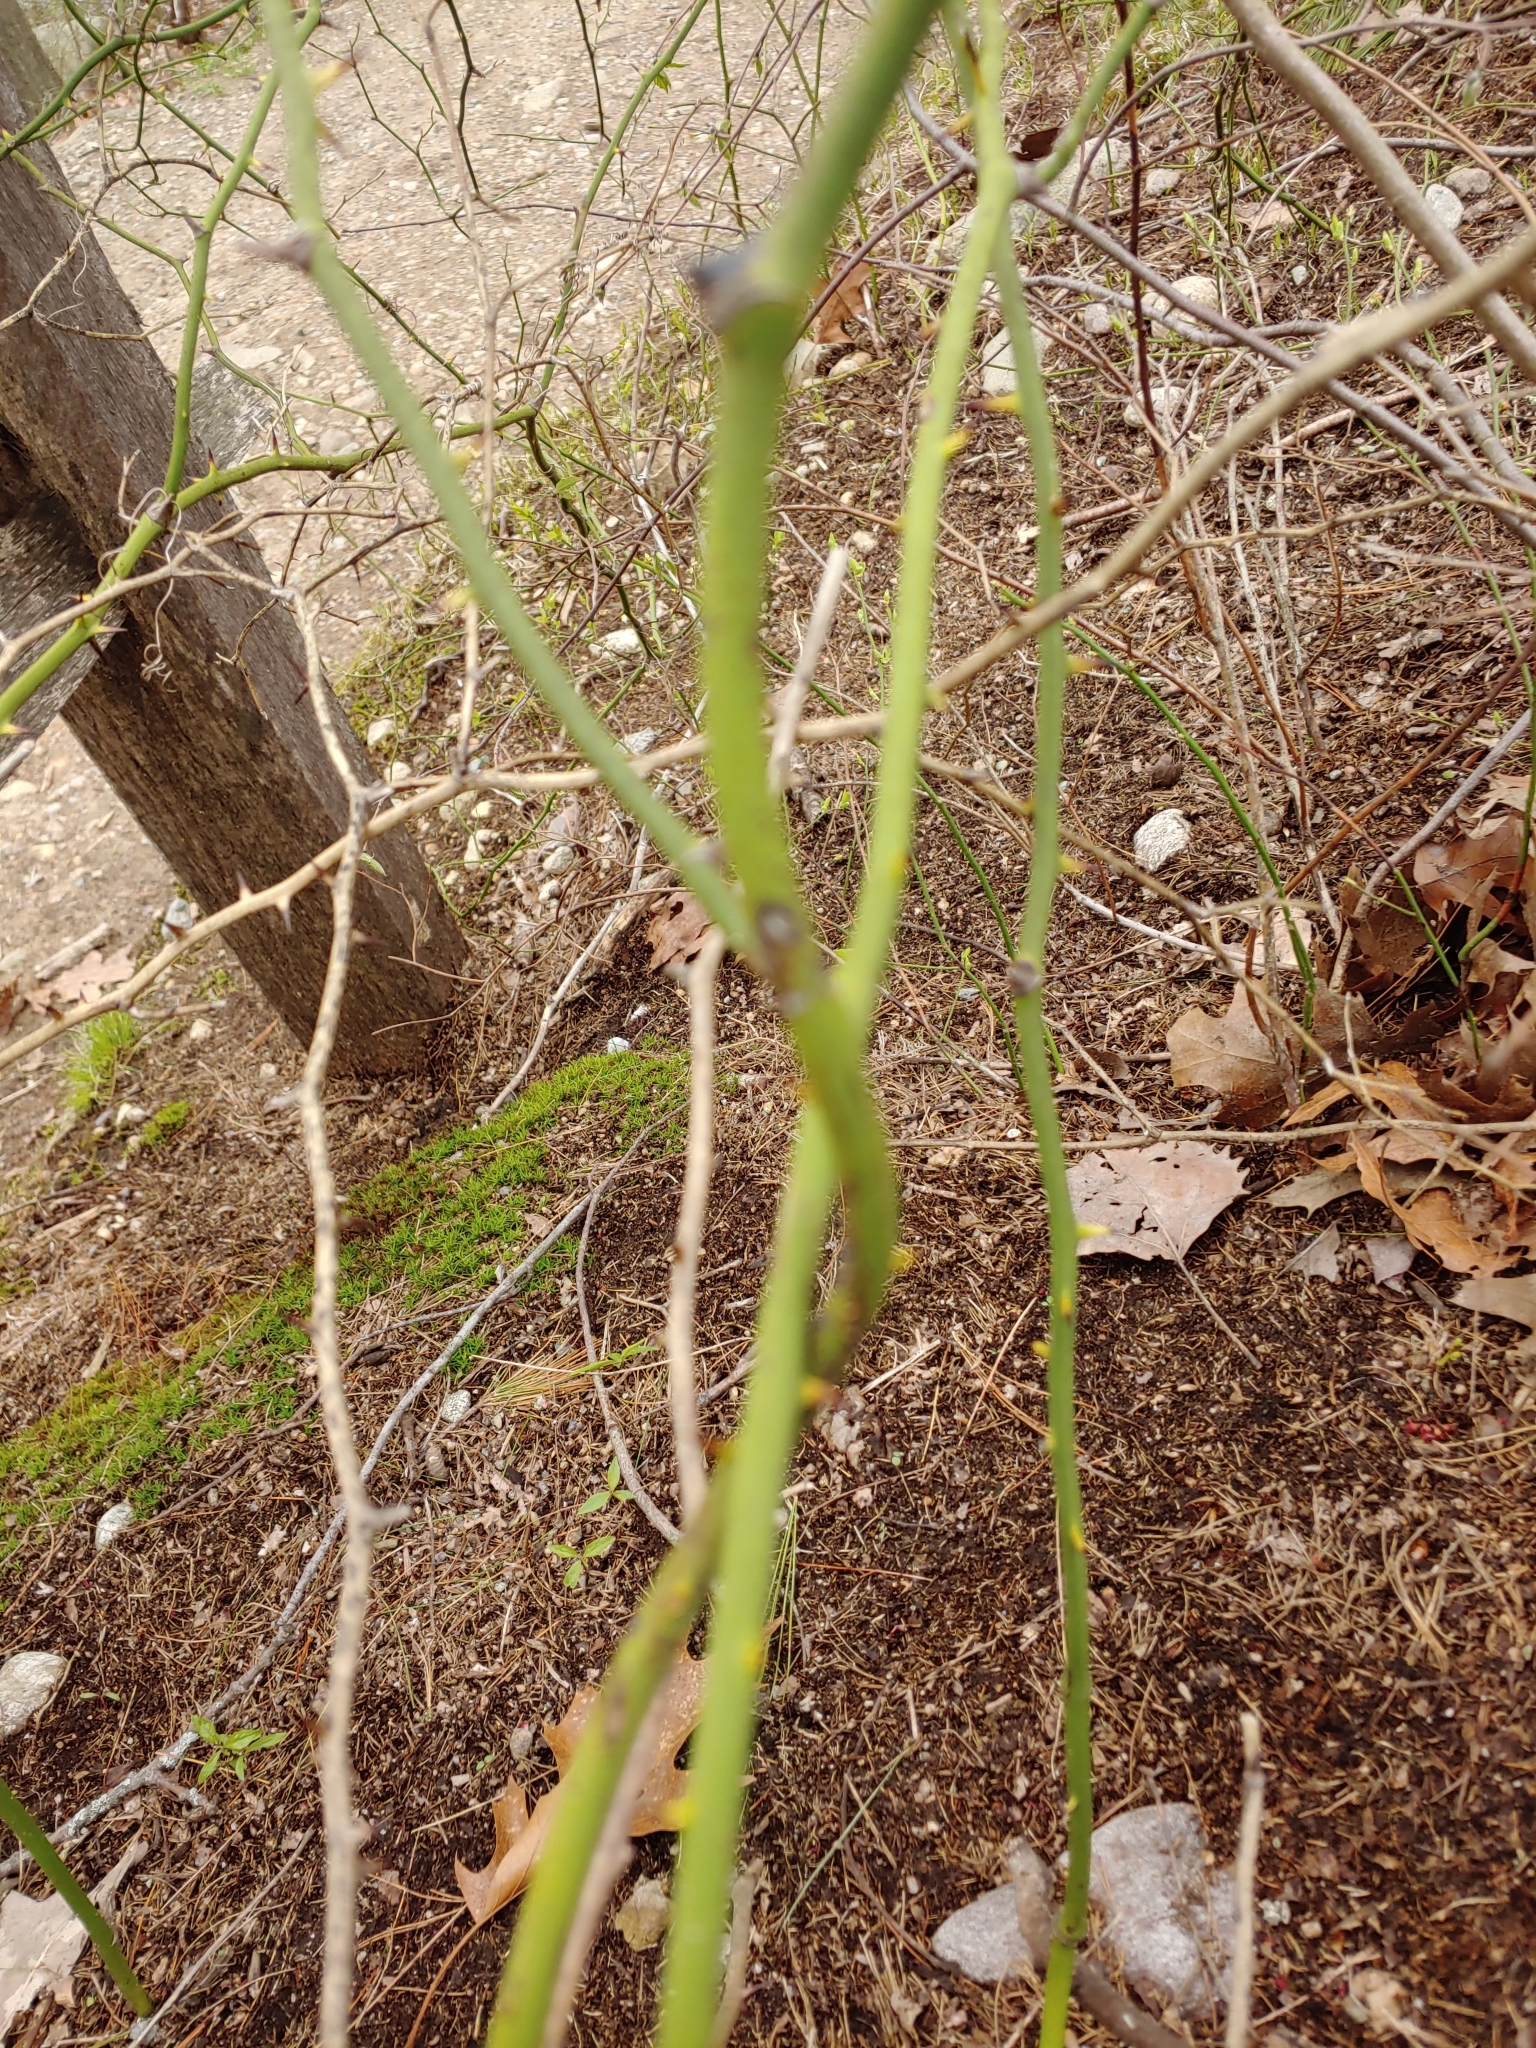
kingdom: Plantae
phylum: Tracheophyta
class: Liliopsida
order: Liliales
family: Smilacaceae
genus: Smilax
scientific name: Smilax rotundifolia
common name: Bullbriar
